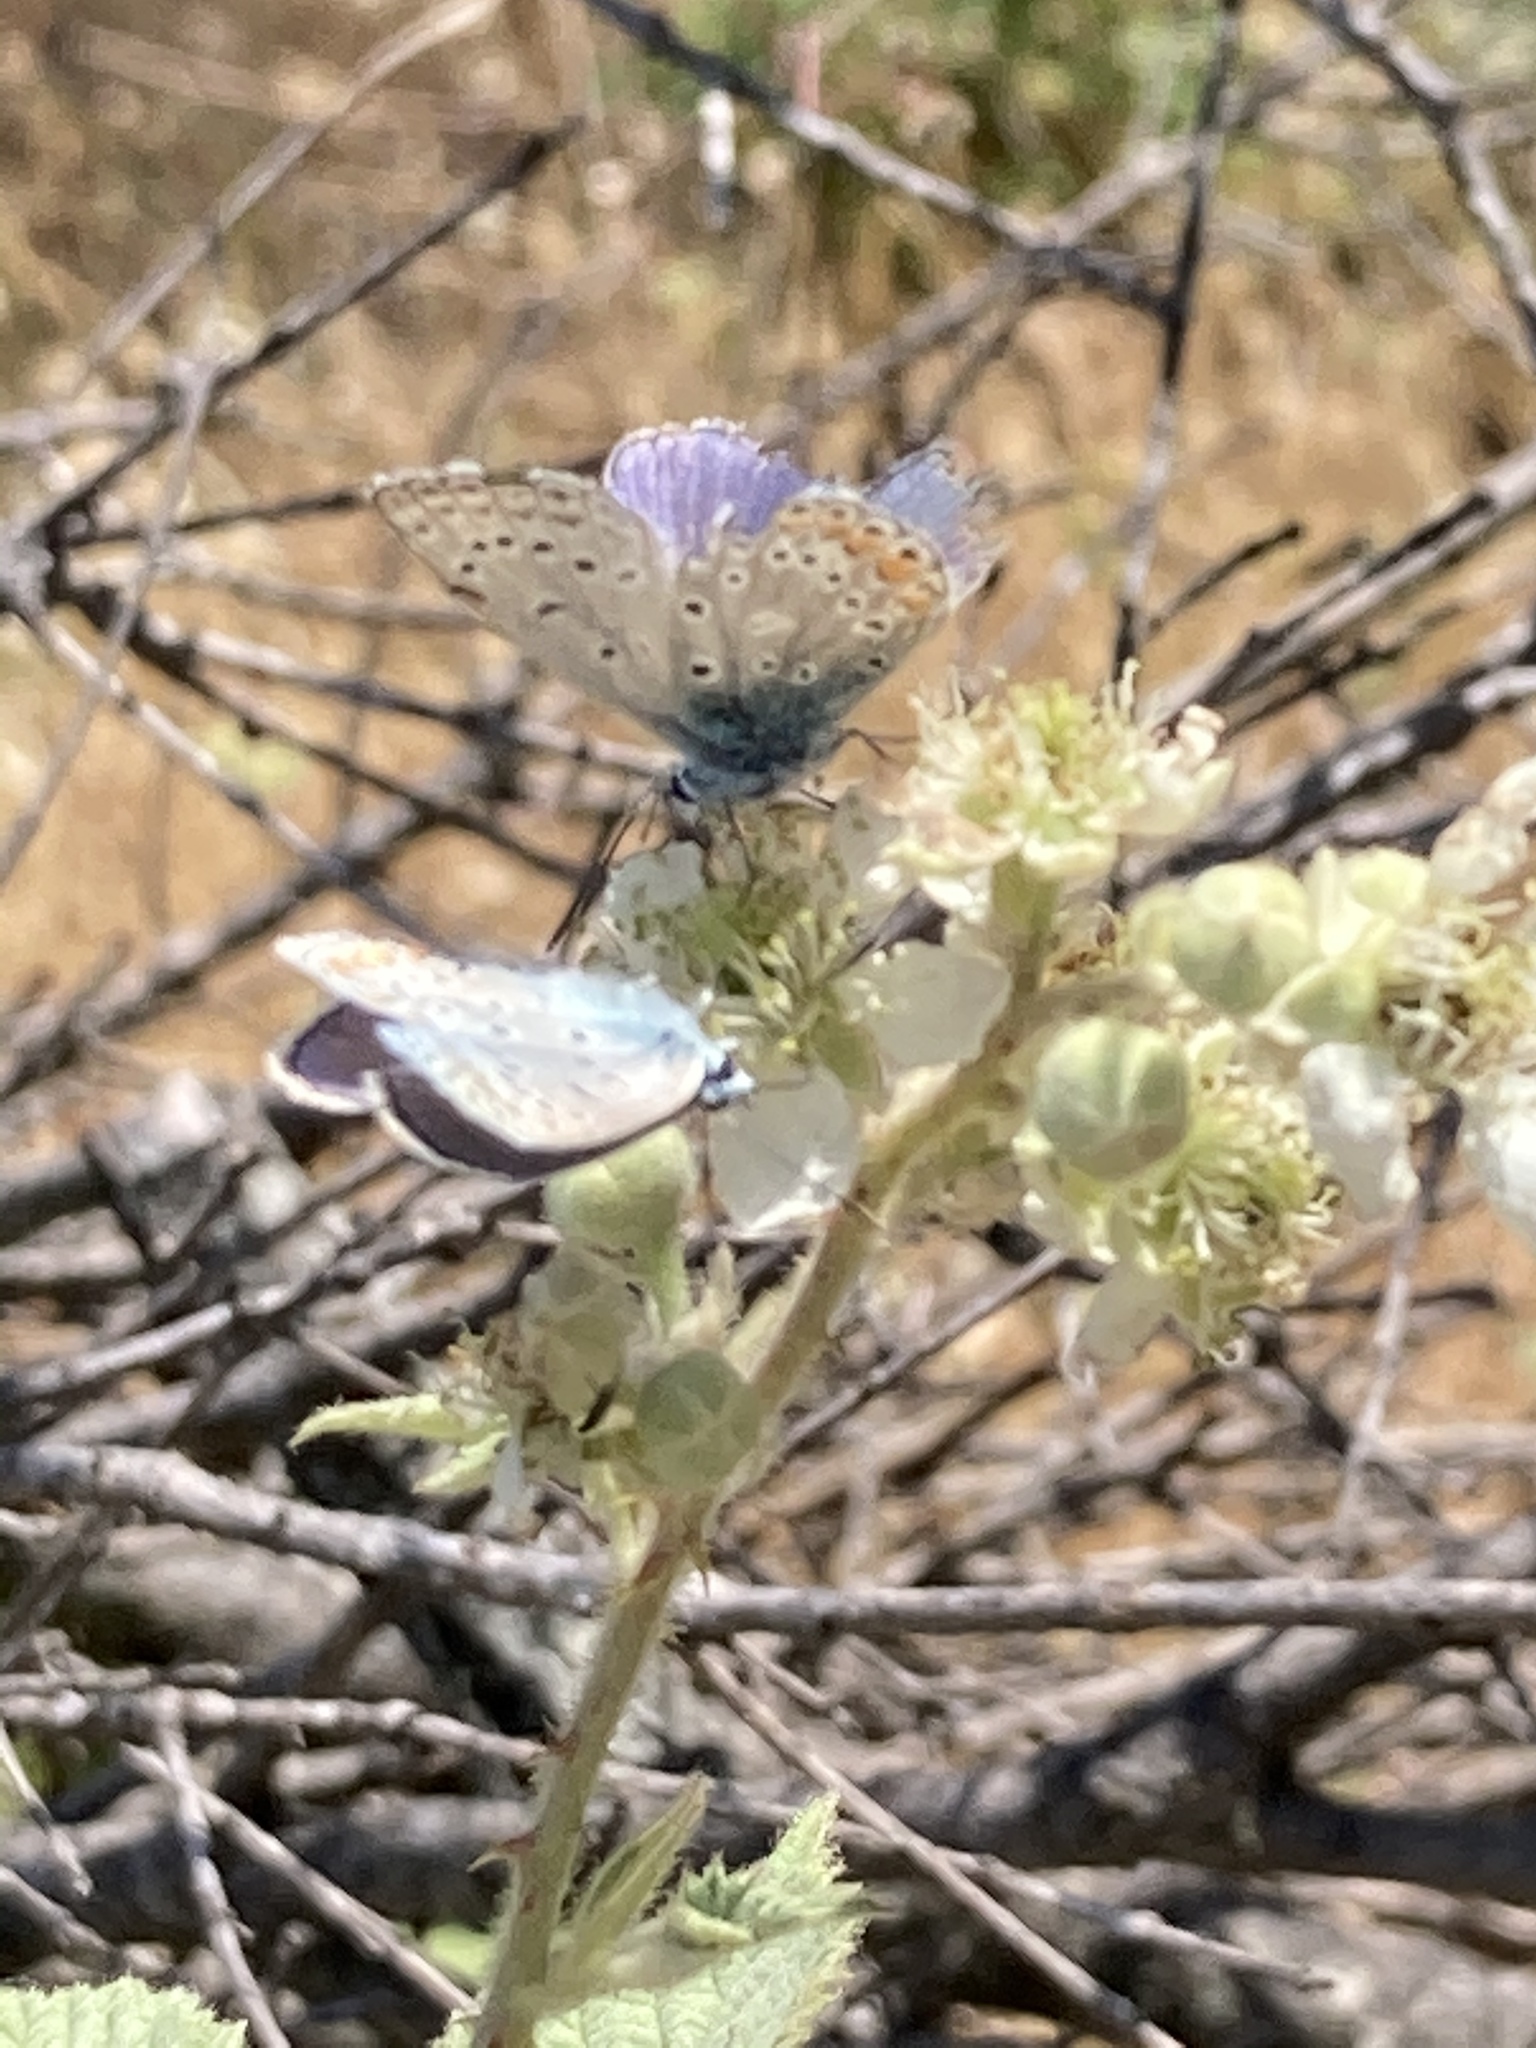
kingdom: Animalia
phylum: Arthropoda
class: Insecta
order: Lepidoptera
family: Lycaenidae
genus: Polyommatus
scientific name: Polyommatus icarus
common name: Common blue
